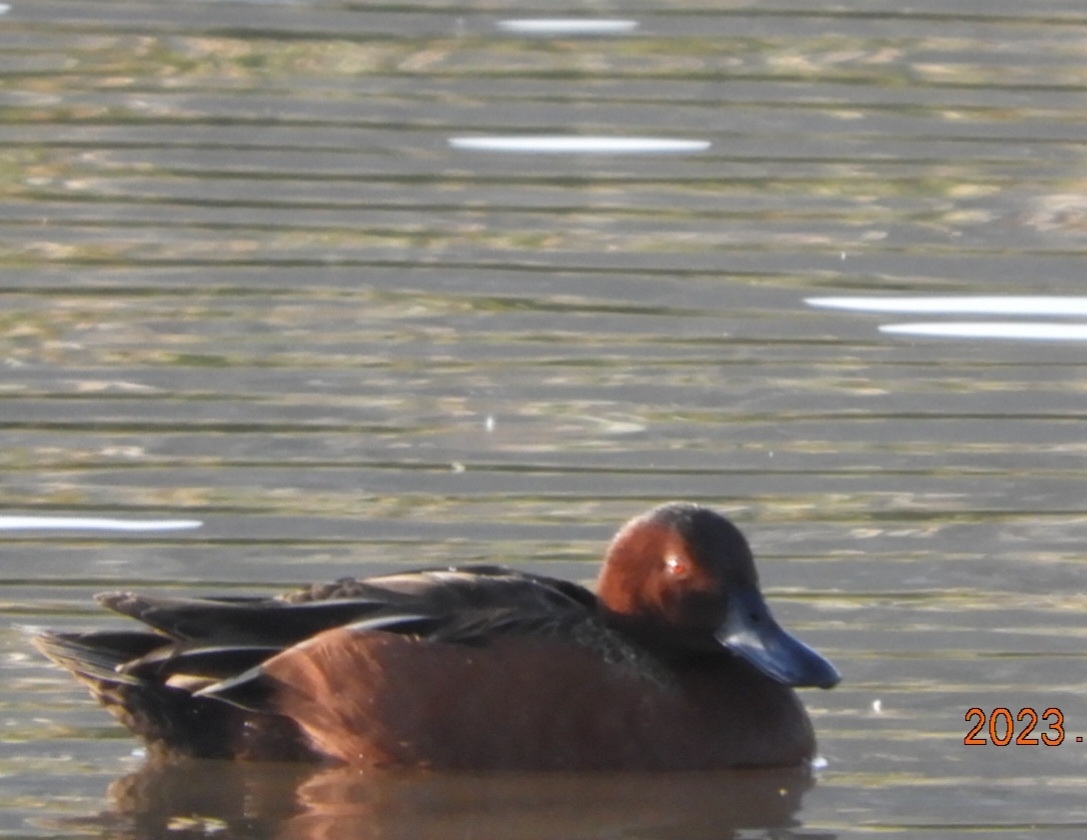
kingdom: Animalia
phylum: Chordata
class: Aves
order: Anseriformes
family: Anatidae
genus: Spatula
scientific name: Spatula cyanoptera
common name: Cinnamon teal
